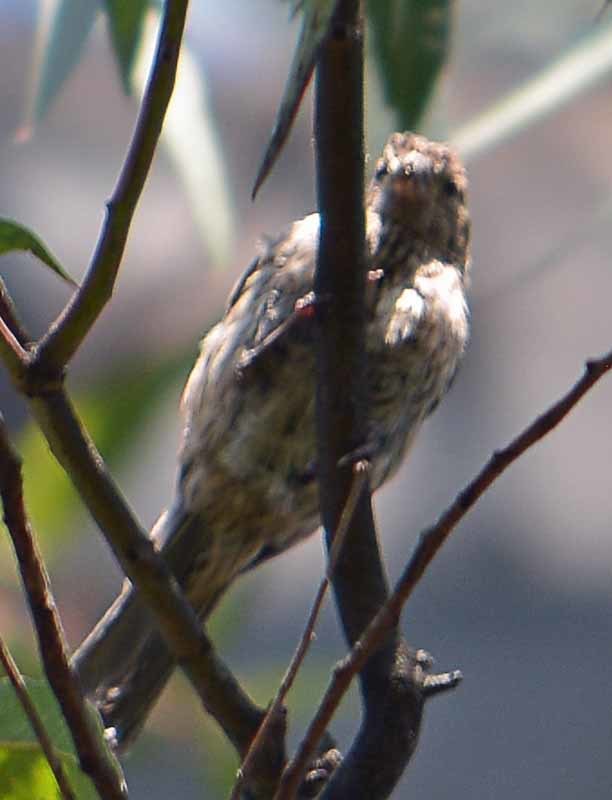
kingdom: Animalia
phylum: Chordata
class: Aves
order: Passeriformes
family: Fringillidae
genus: Haemorhous
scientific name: Haemorhous mexicanus
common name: House finch
